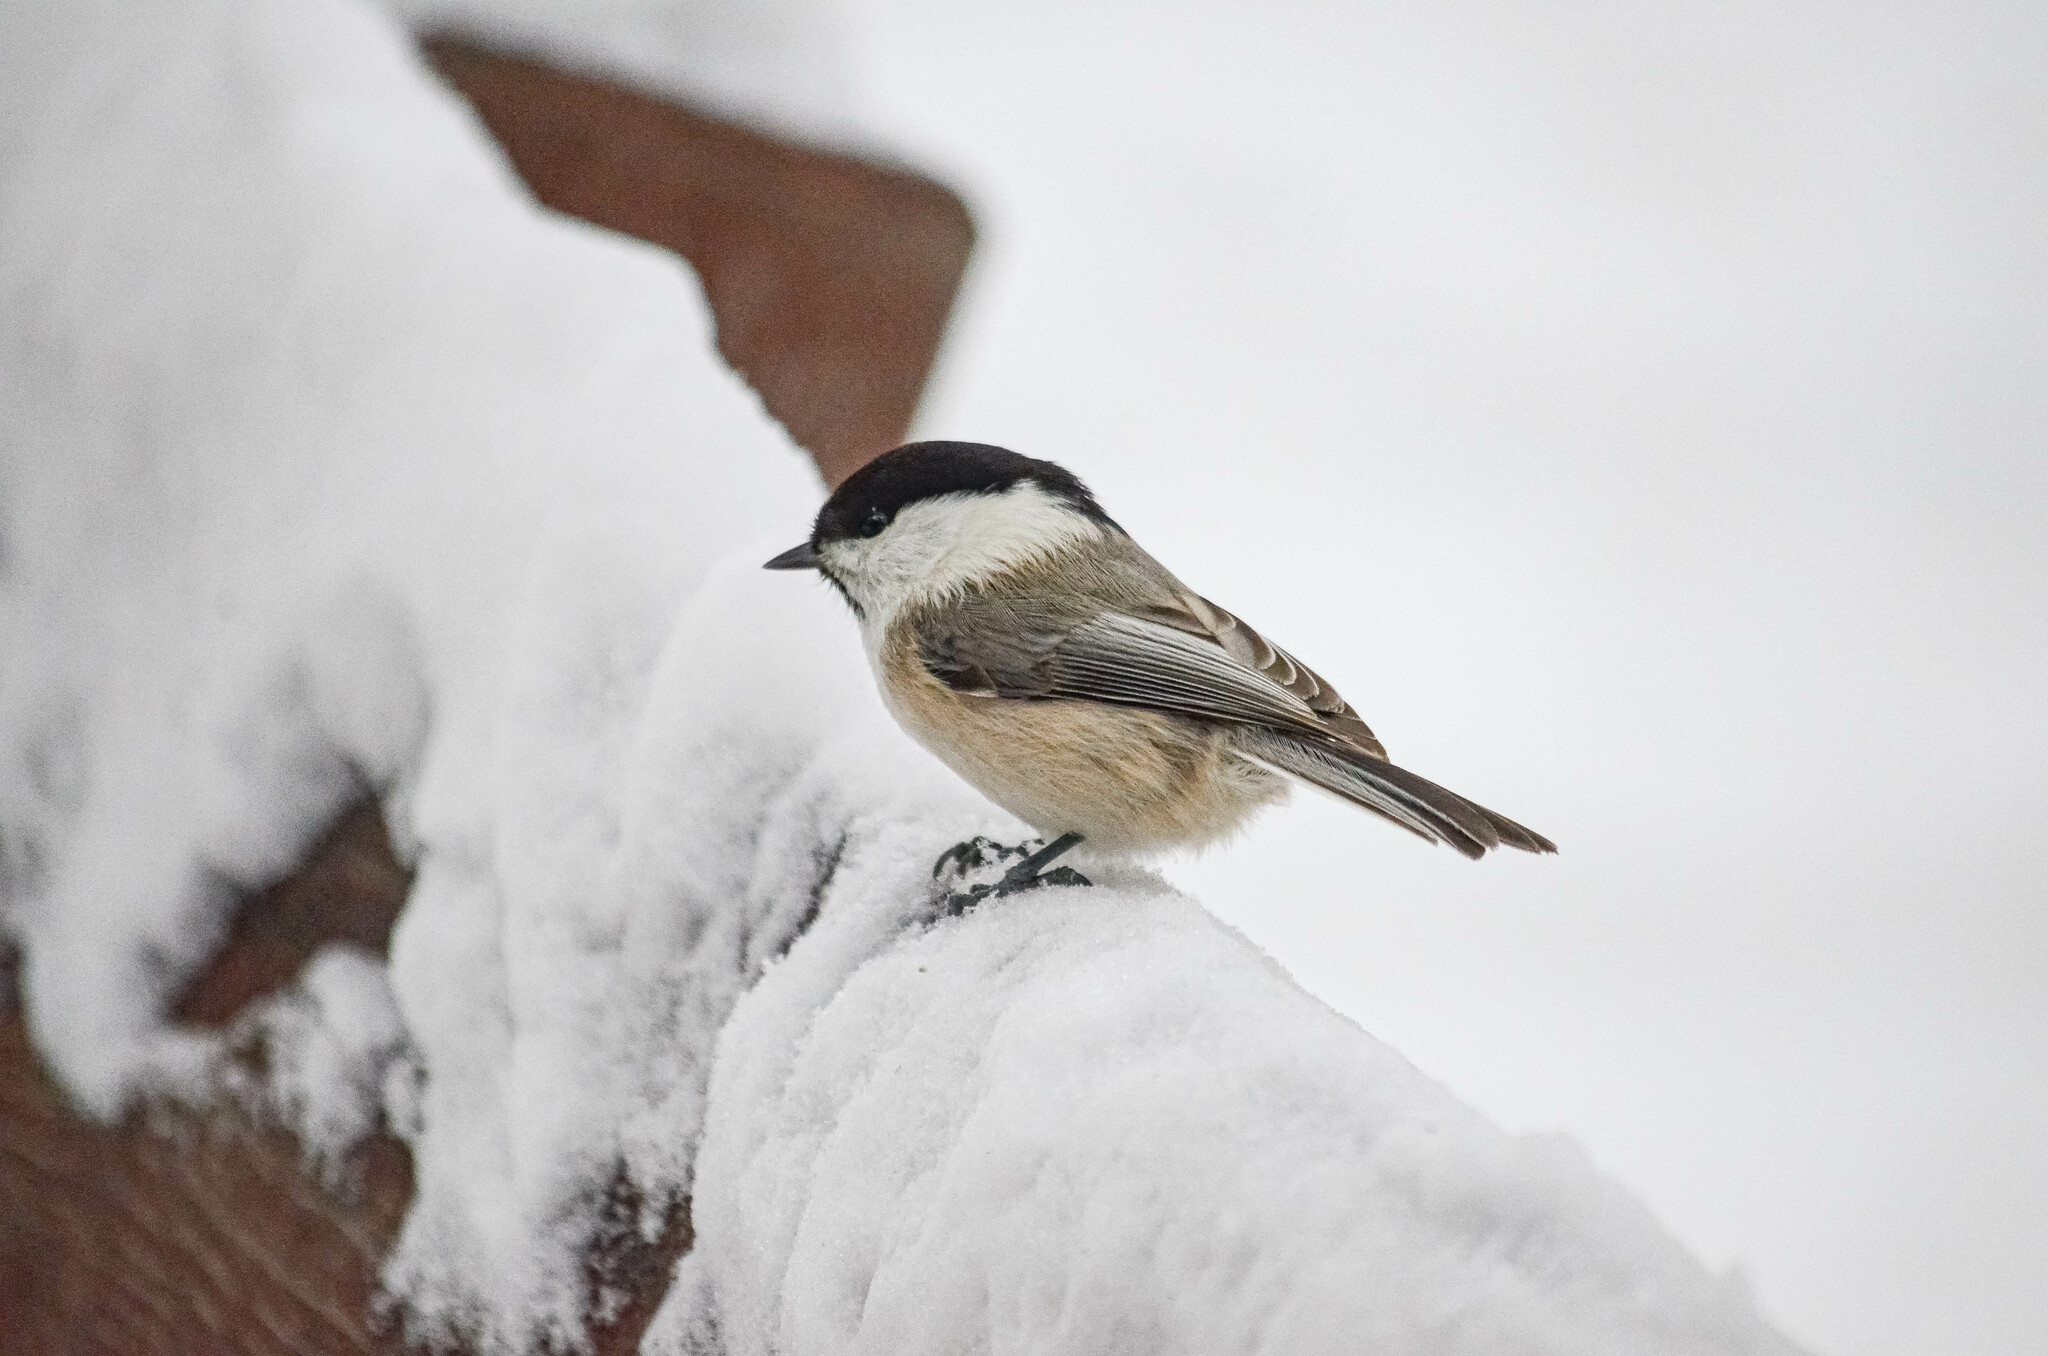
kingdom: Animalia
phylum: Chordata
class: Aves
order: Passeriformes
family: Paridae
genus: Poecile
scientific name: Poecile montanus
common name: Willow tit
